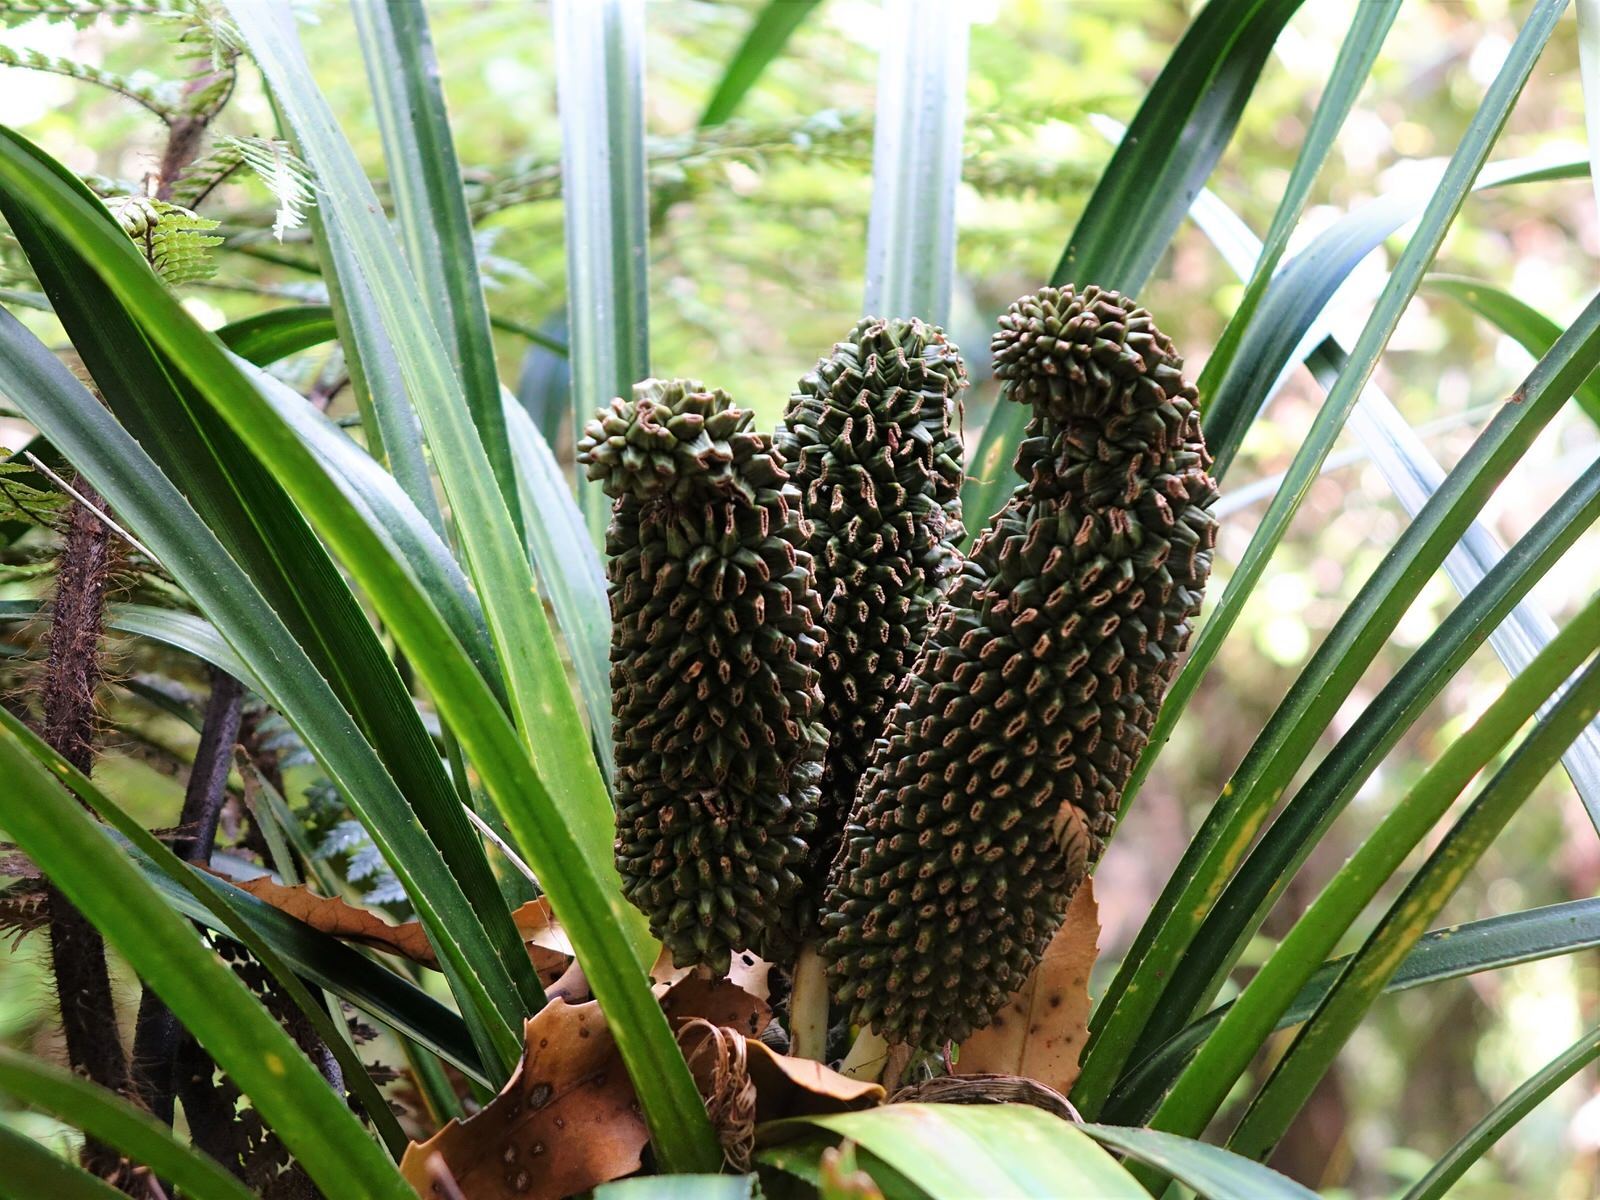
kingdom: Plantae
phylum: Tracheophyta
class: Liliopsida
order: Pandanales
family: Pandanaceae
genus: Freycinetia
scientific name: Freycinetia banksii
